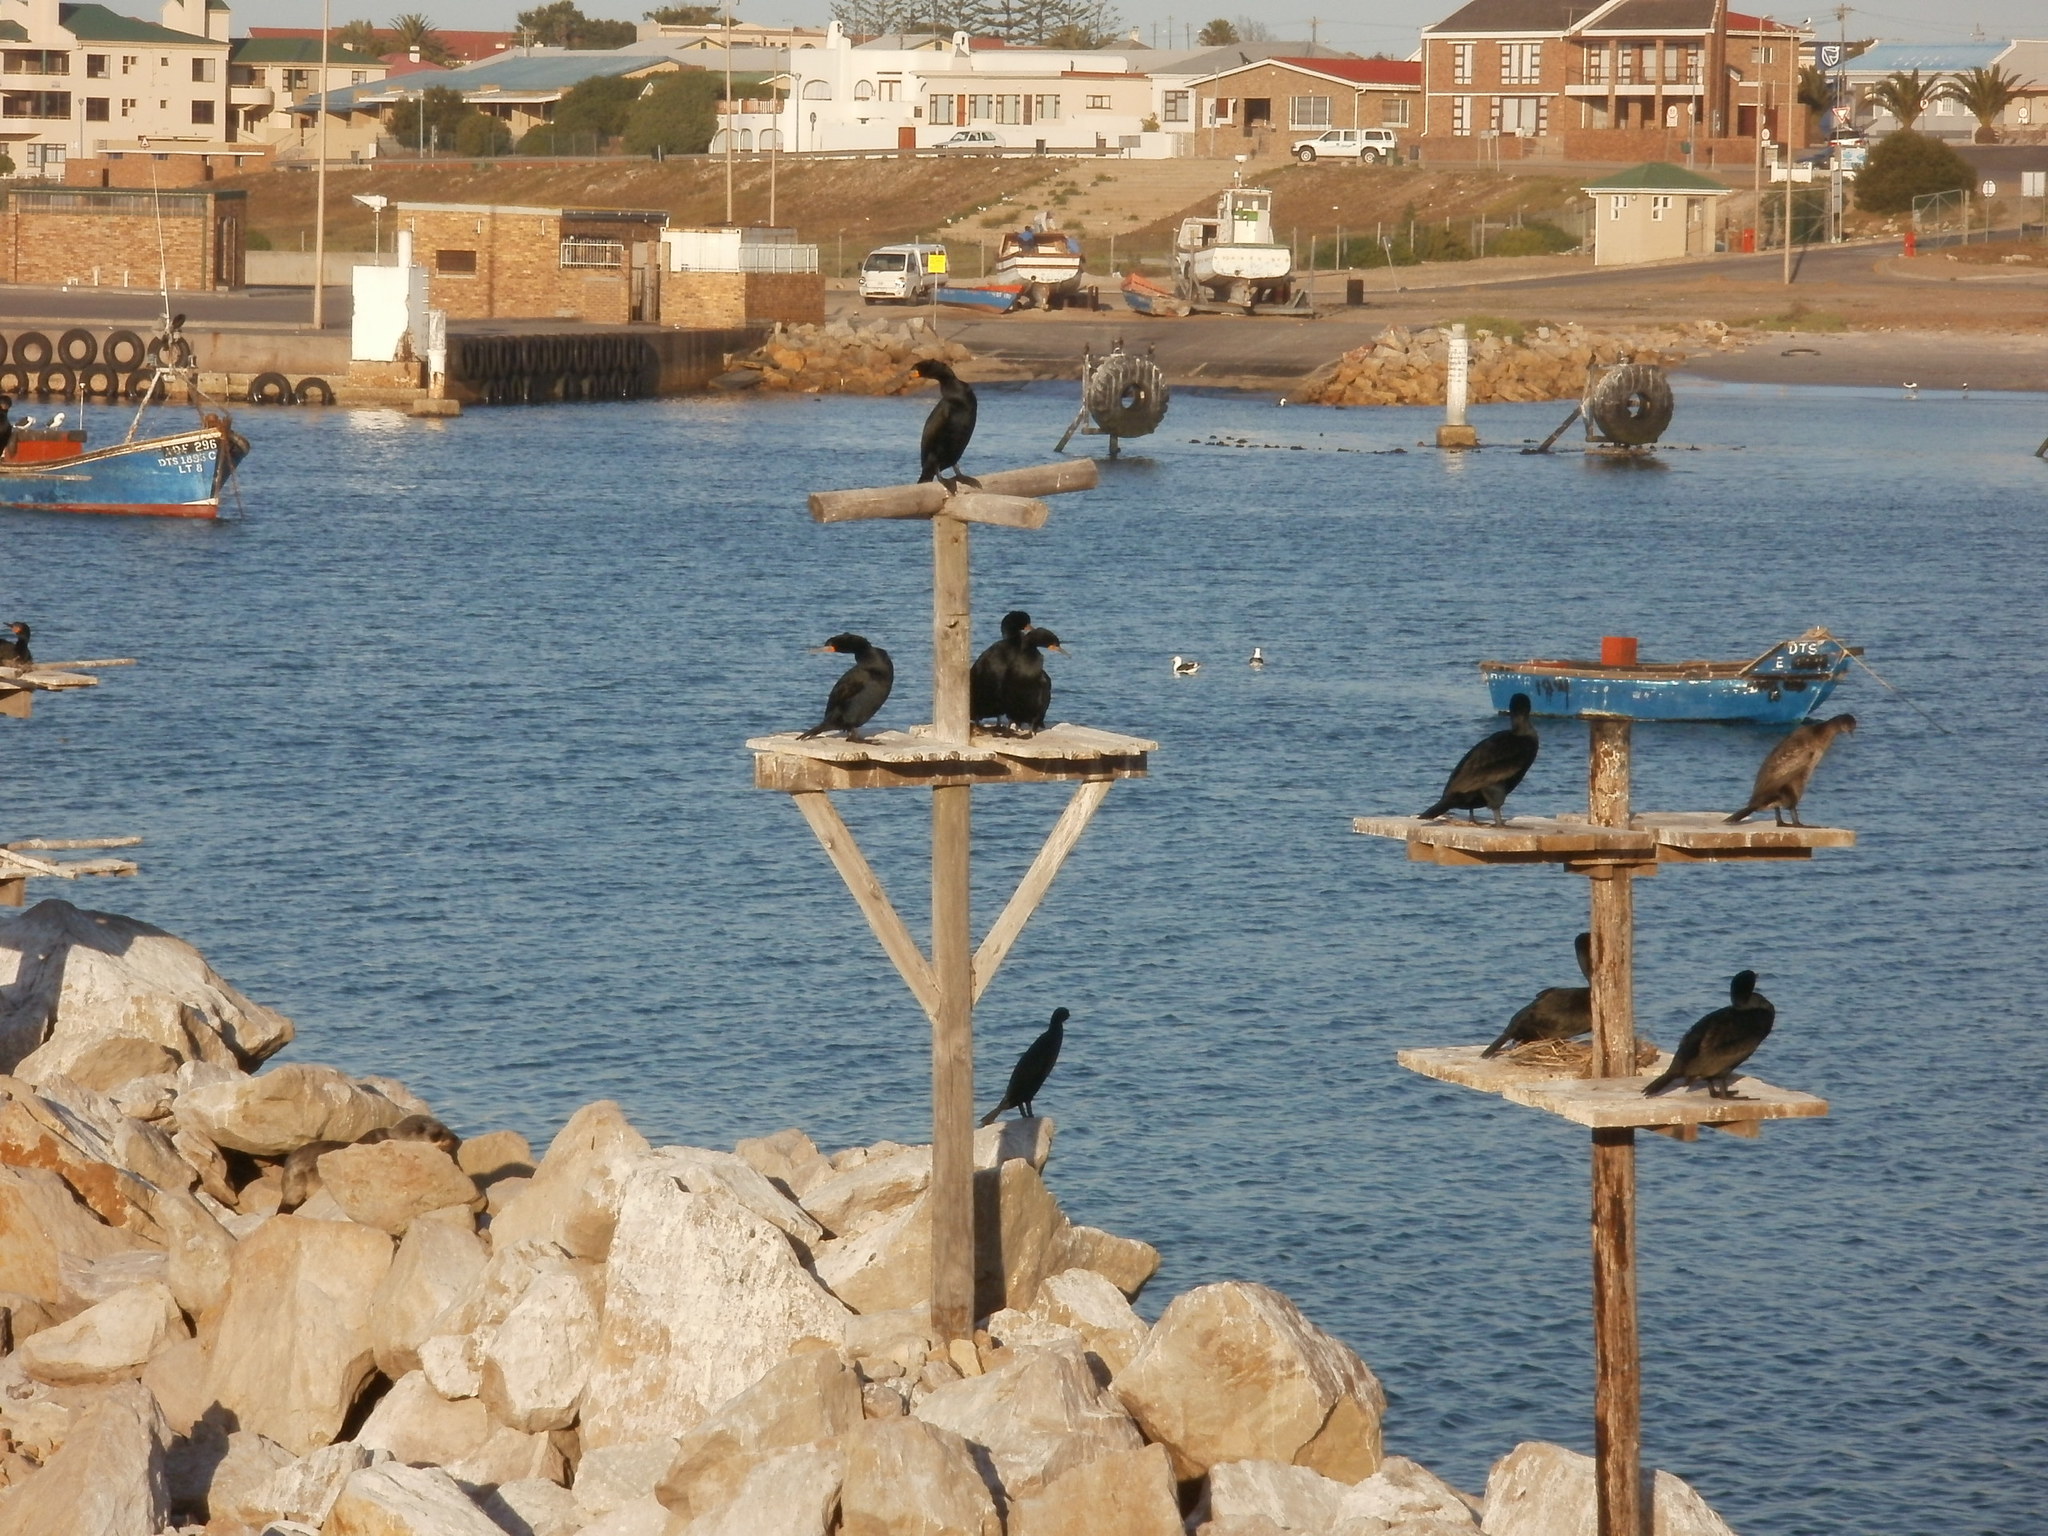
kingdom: Animalia
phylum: Chordata
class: Aves
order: Suliformes
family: Phalacrocoracidae
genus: Phalacrocorax
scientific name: Phalacrocorax capensis
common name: Cape cormorant
